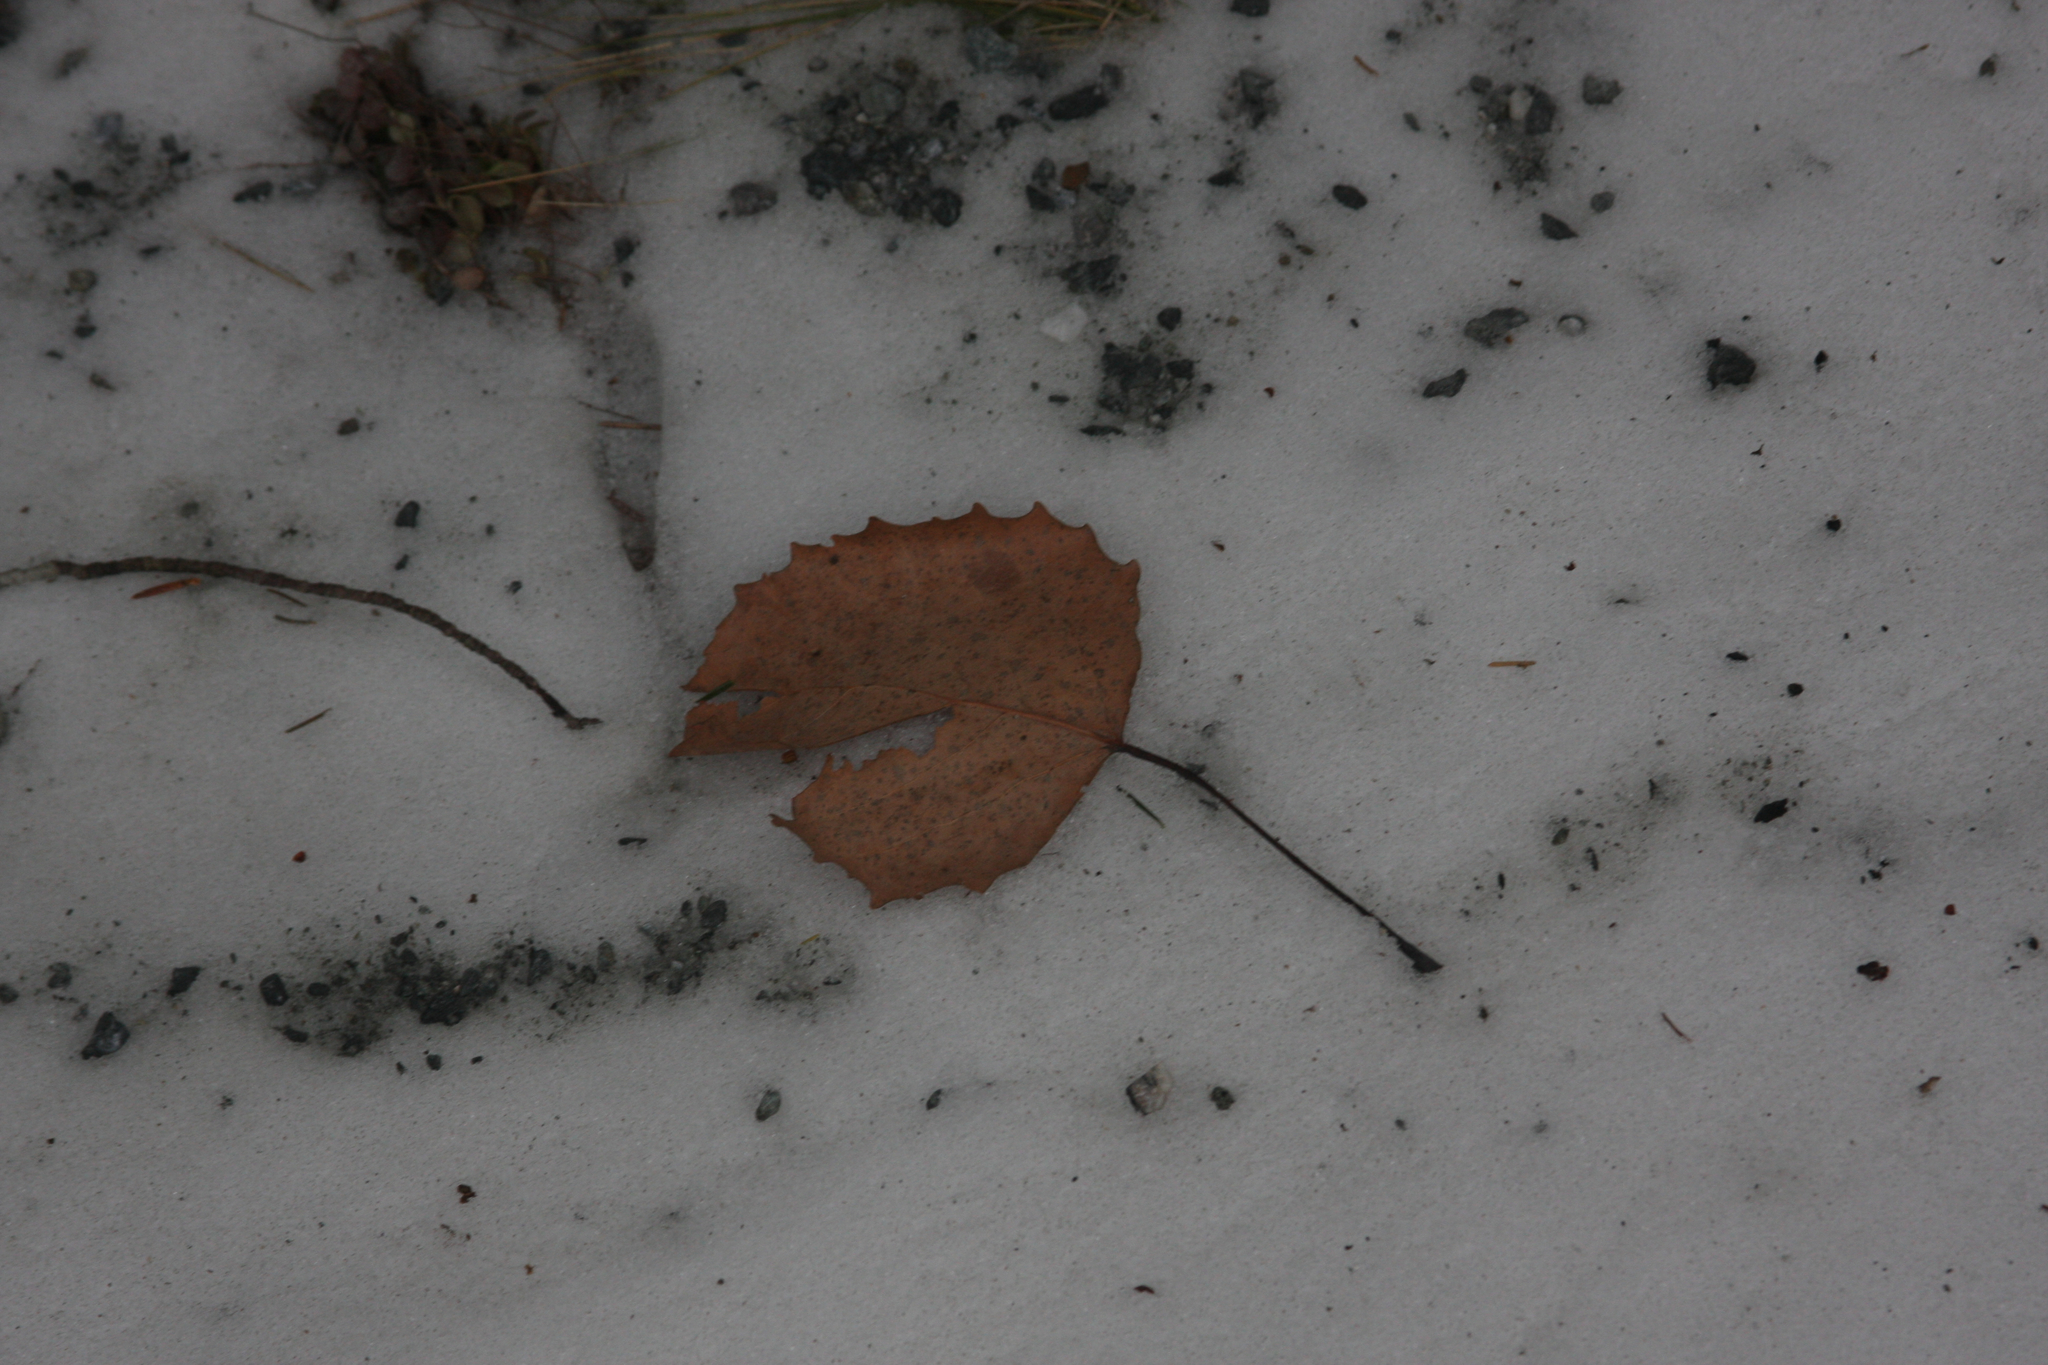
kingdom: Plantae
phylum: Tracheophyta
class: Magnoliopsida
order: Malpighiales
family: Salicaceae
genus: Populus
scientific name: Populus grandidentata
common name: Bigtooth aspen
